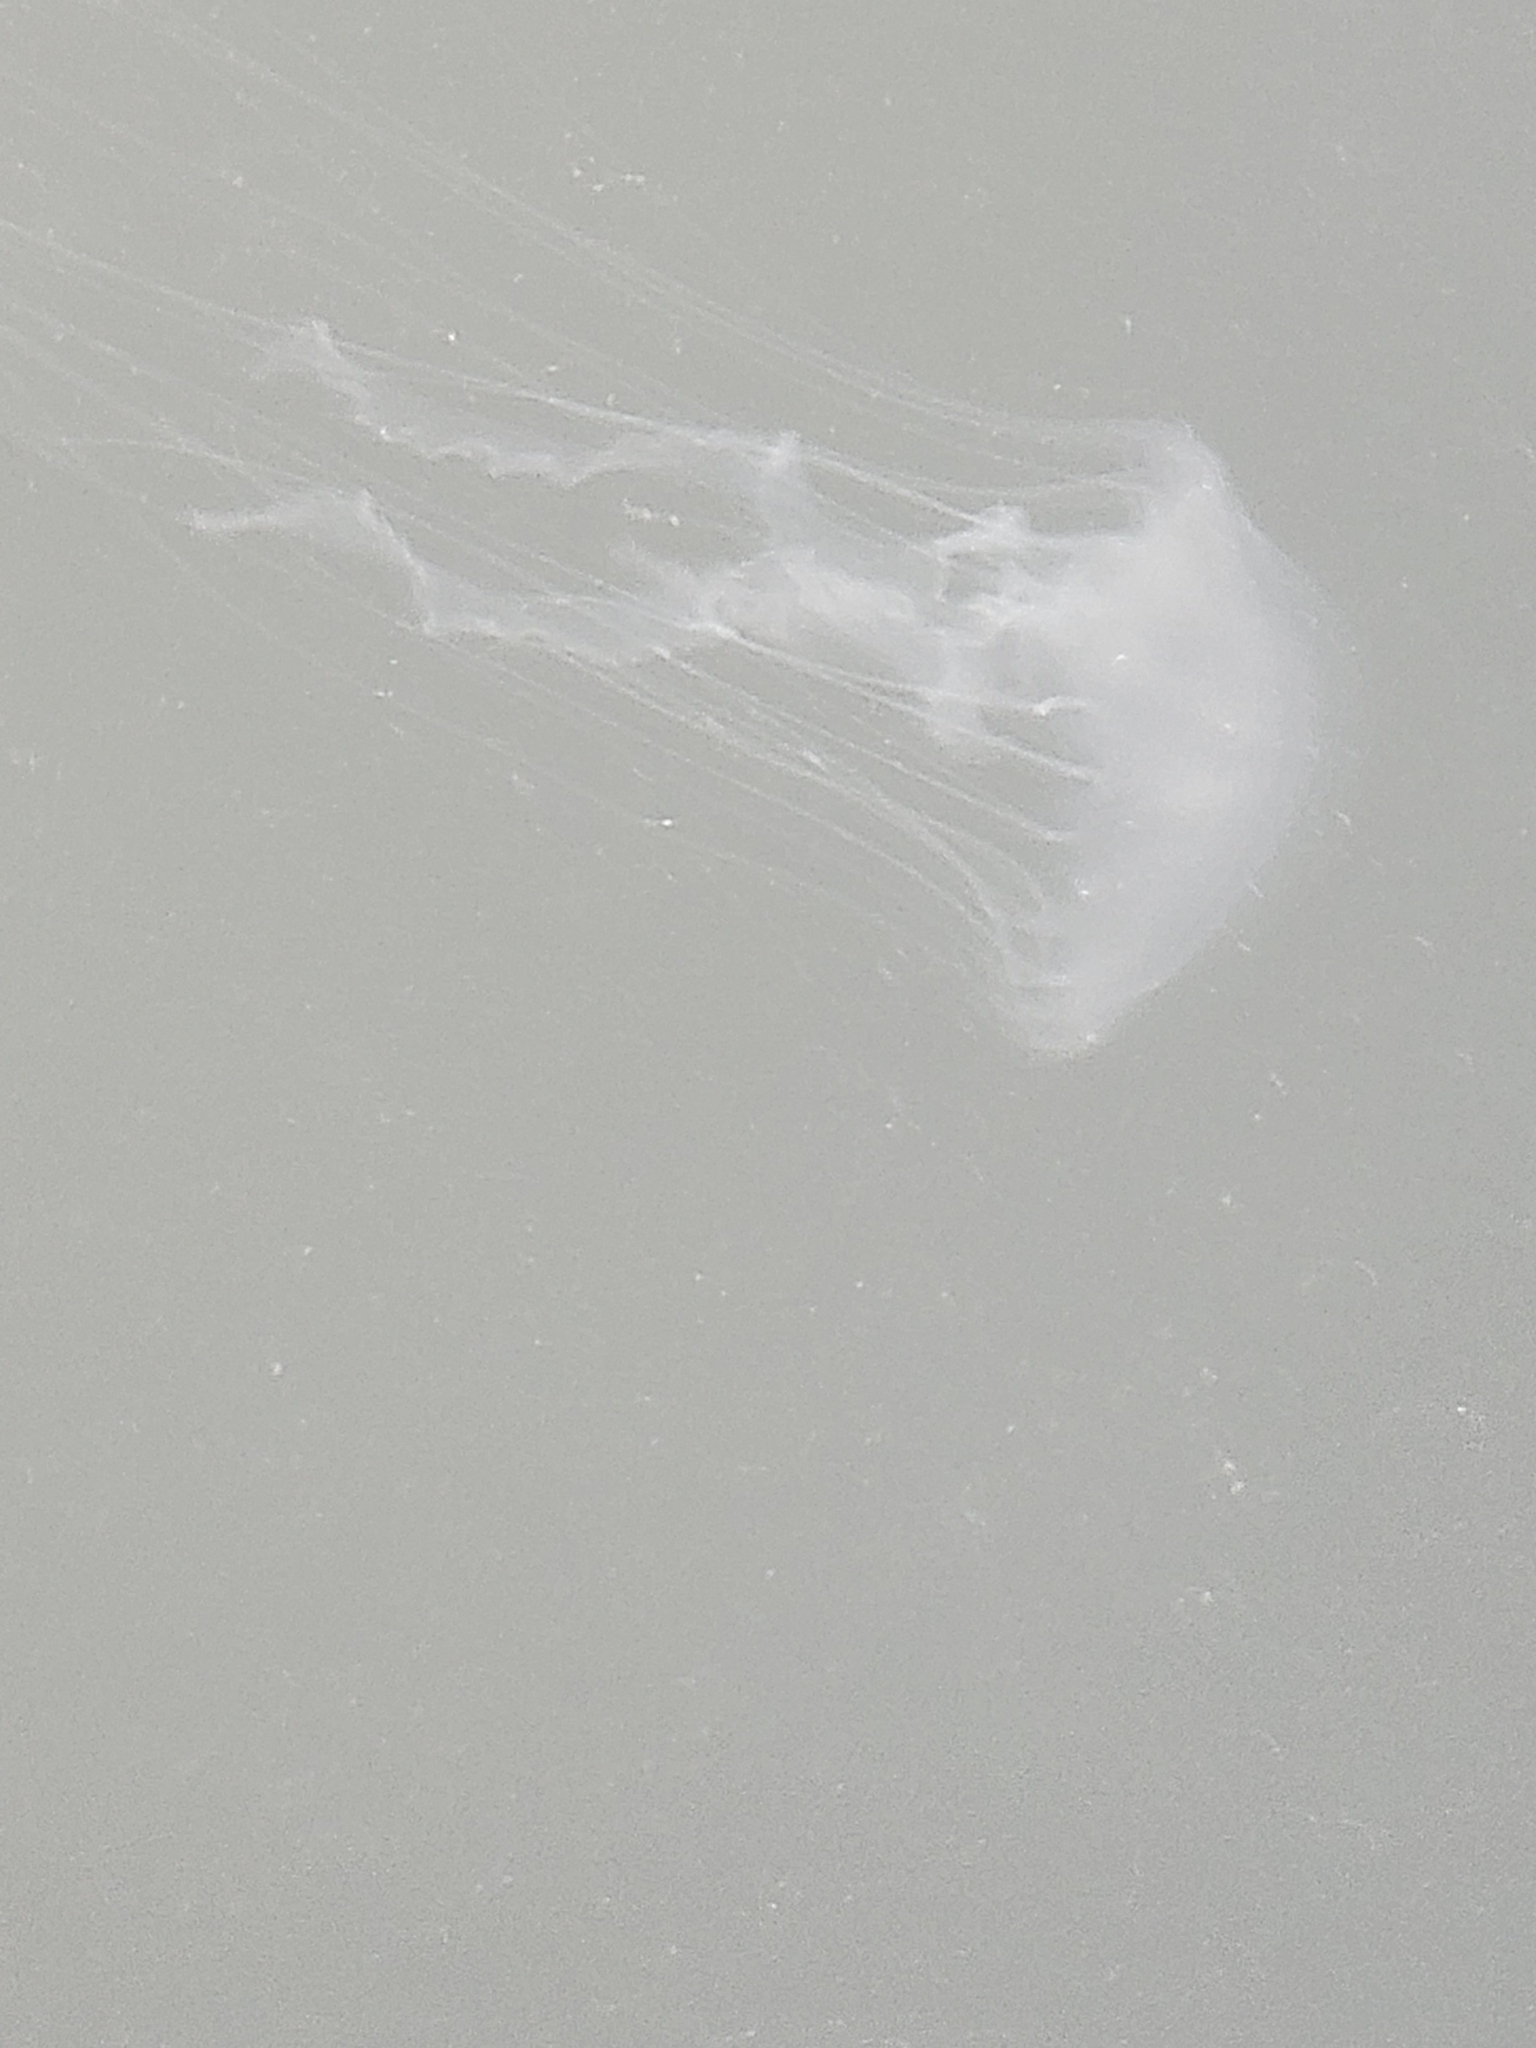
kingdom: Animalia
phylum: Cnidaria
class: Scyphozoa
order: Semaeostomeae
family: Pelagiidae
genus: Chrysaora
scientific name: Chrysaora chesapeakei
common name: Bay nettle
